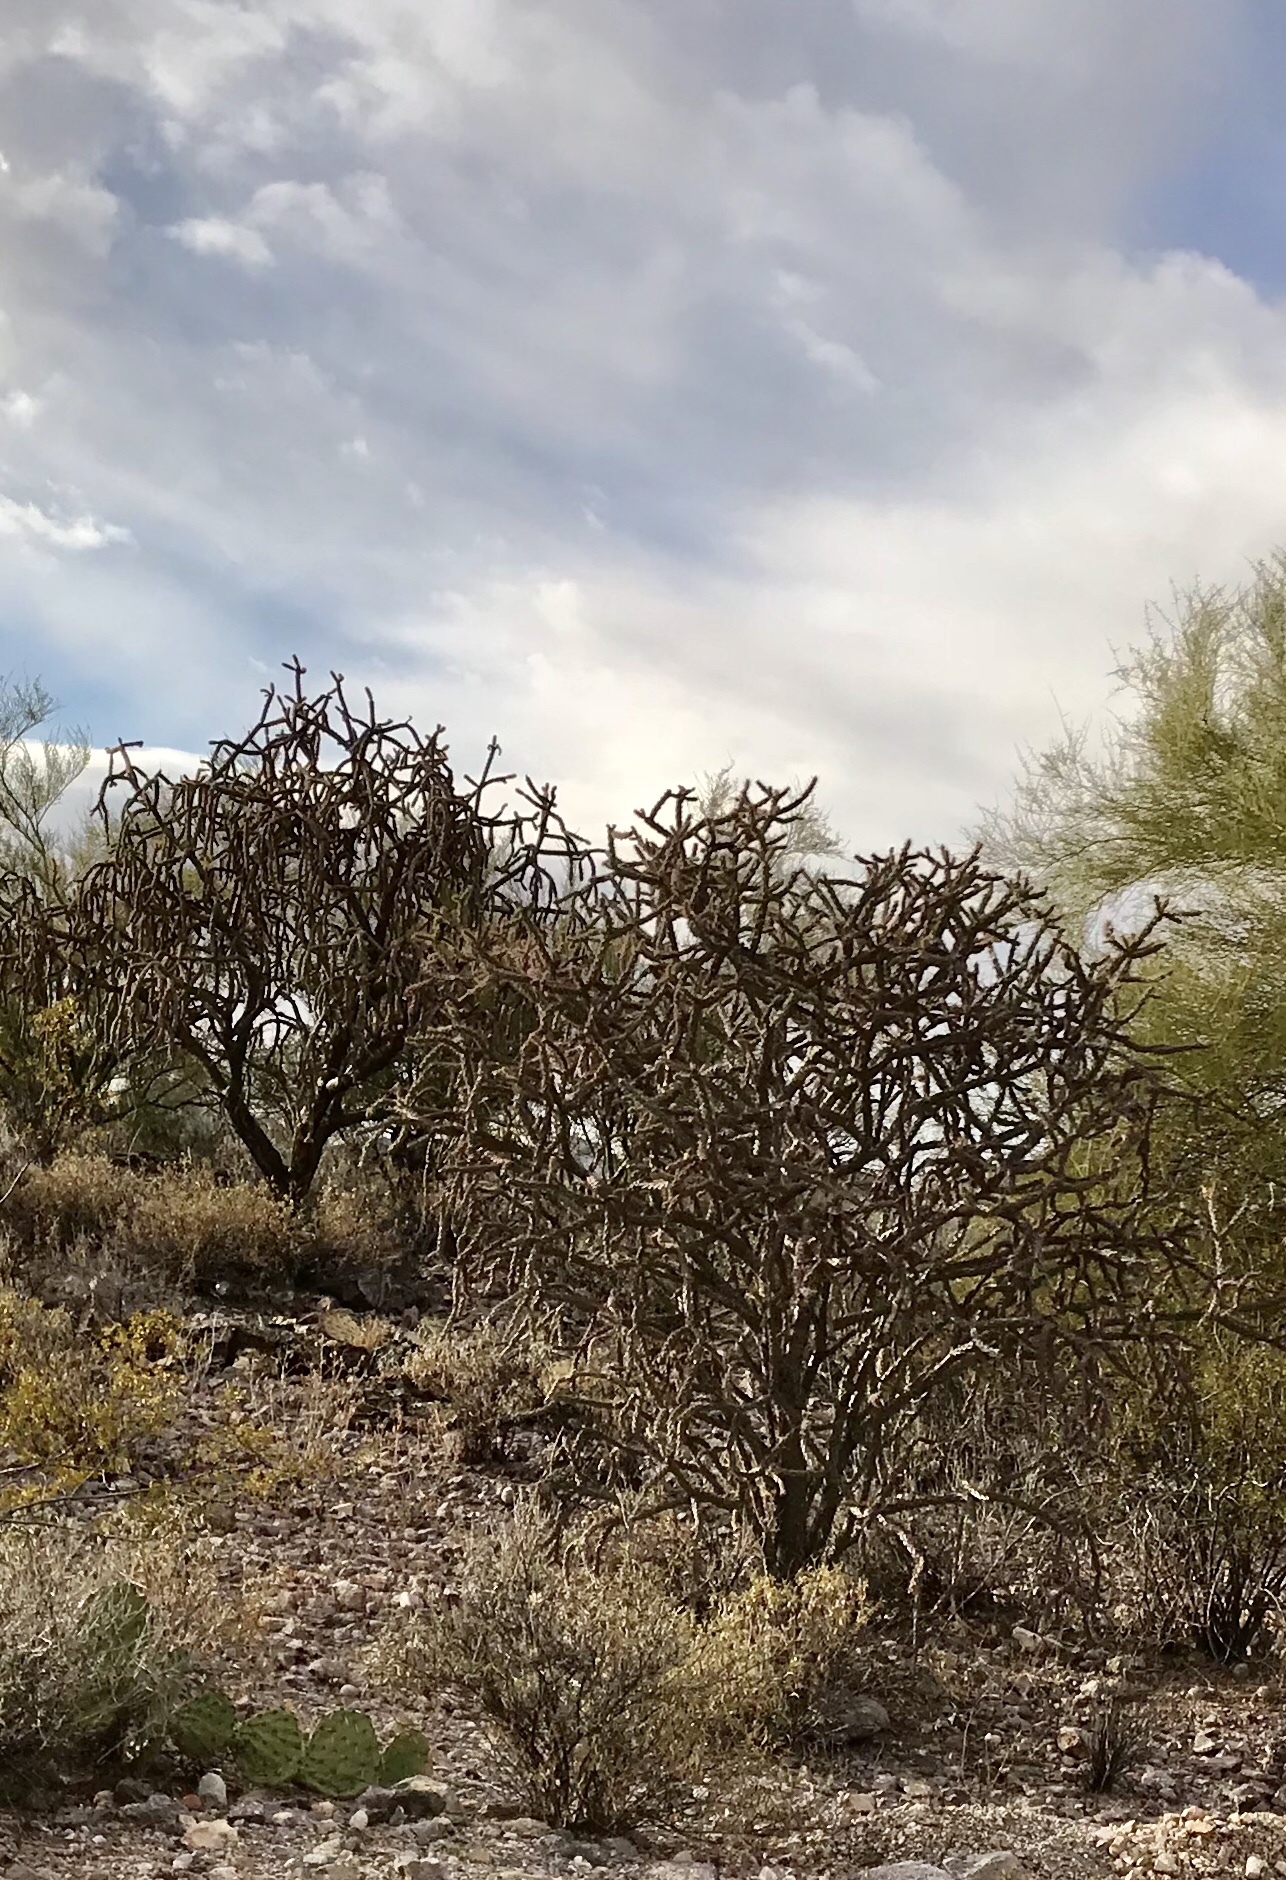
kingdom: Plantae
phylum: Tracheophyta
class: Magnoliopsida
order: Caryophyllales
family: Cactaceae
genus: Cylindropuntia
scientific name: Cylindropuntia thurberi
